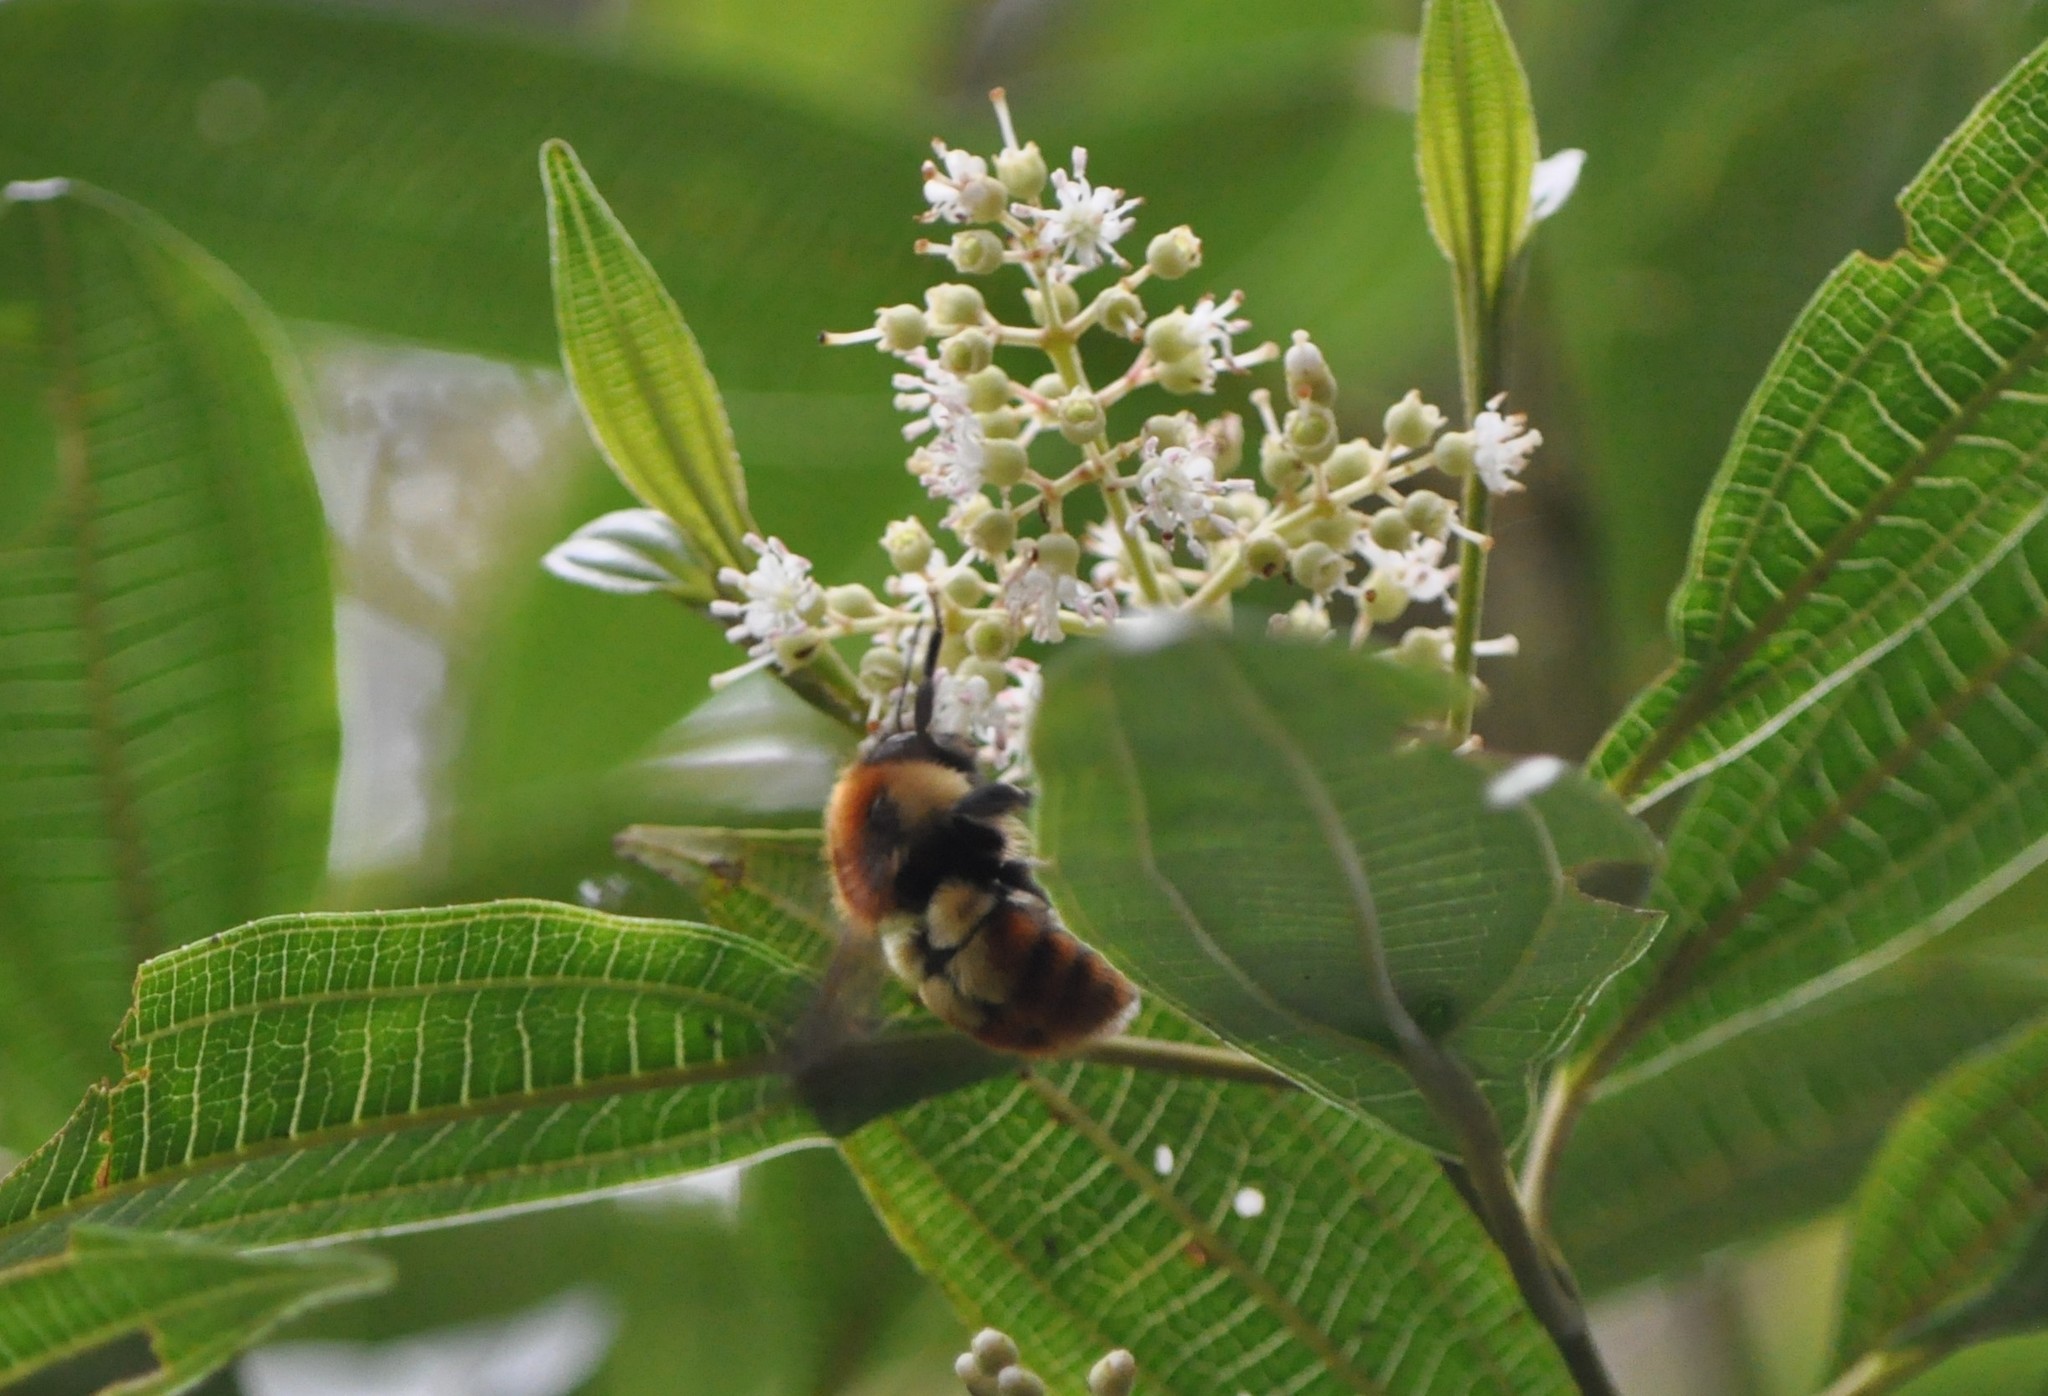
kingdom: Animalia
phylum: Arthropoda
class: Insecta
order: Hymenoptera
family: Apidae
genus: Bombus
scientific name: Bombus ephippiatus
